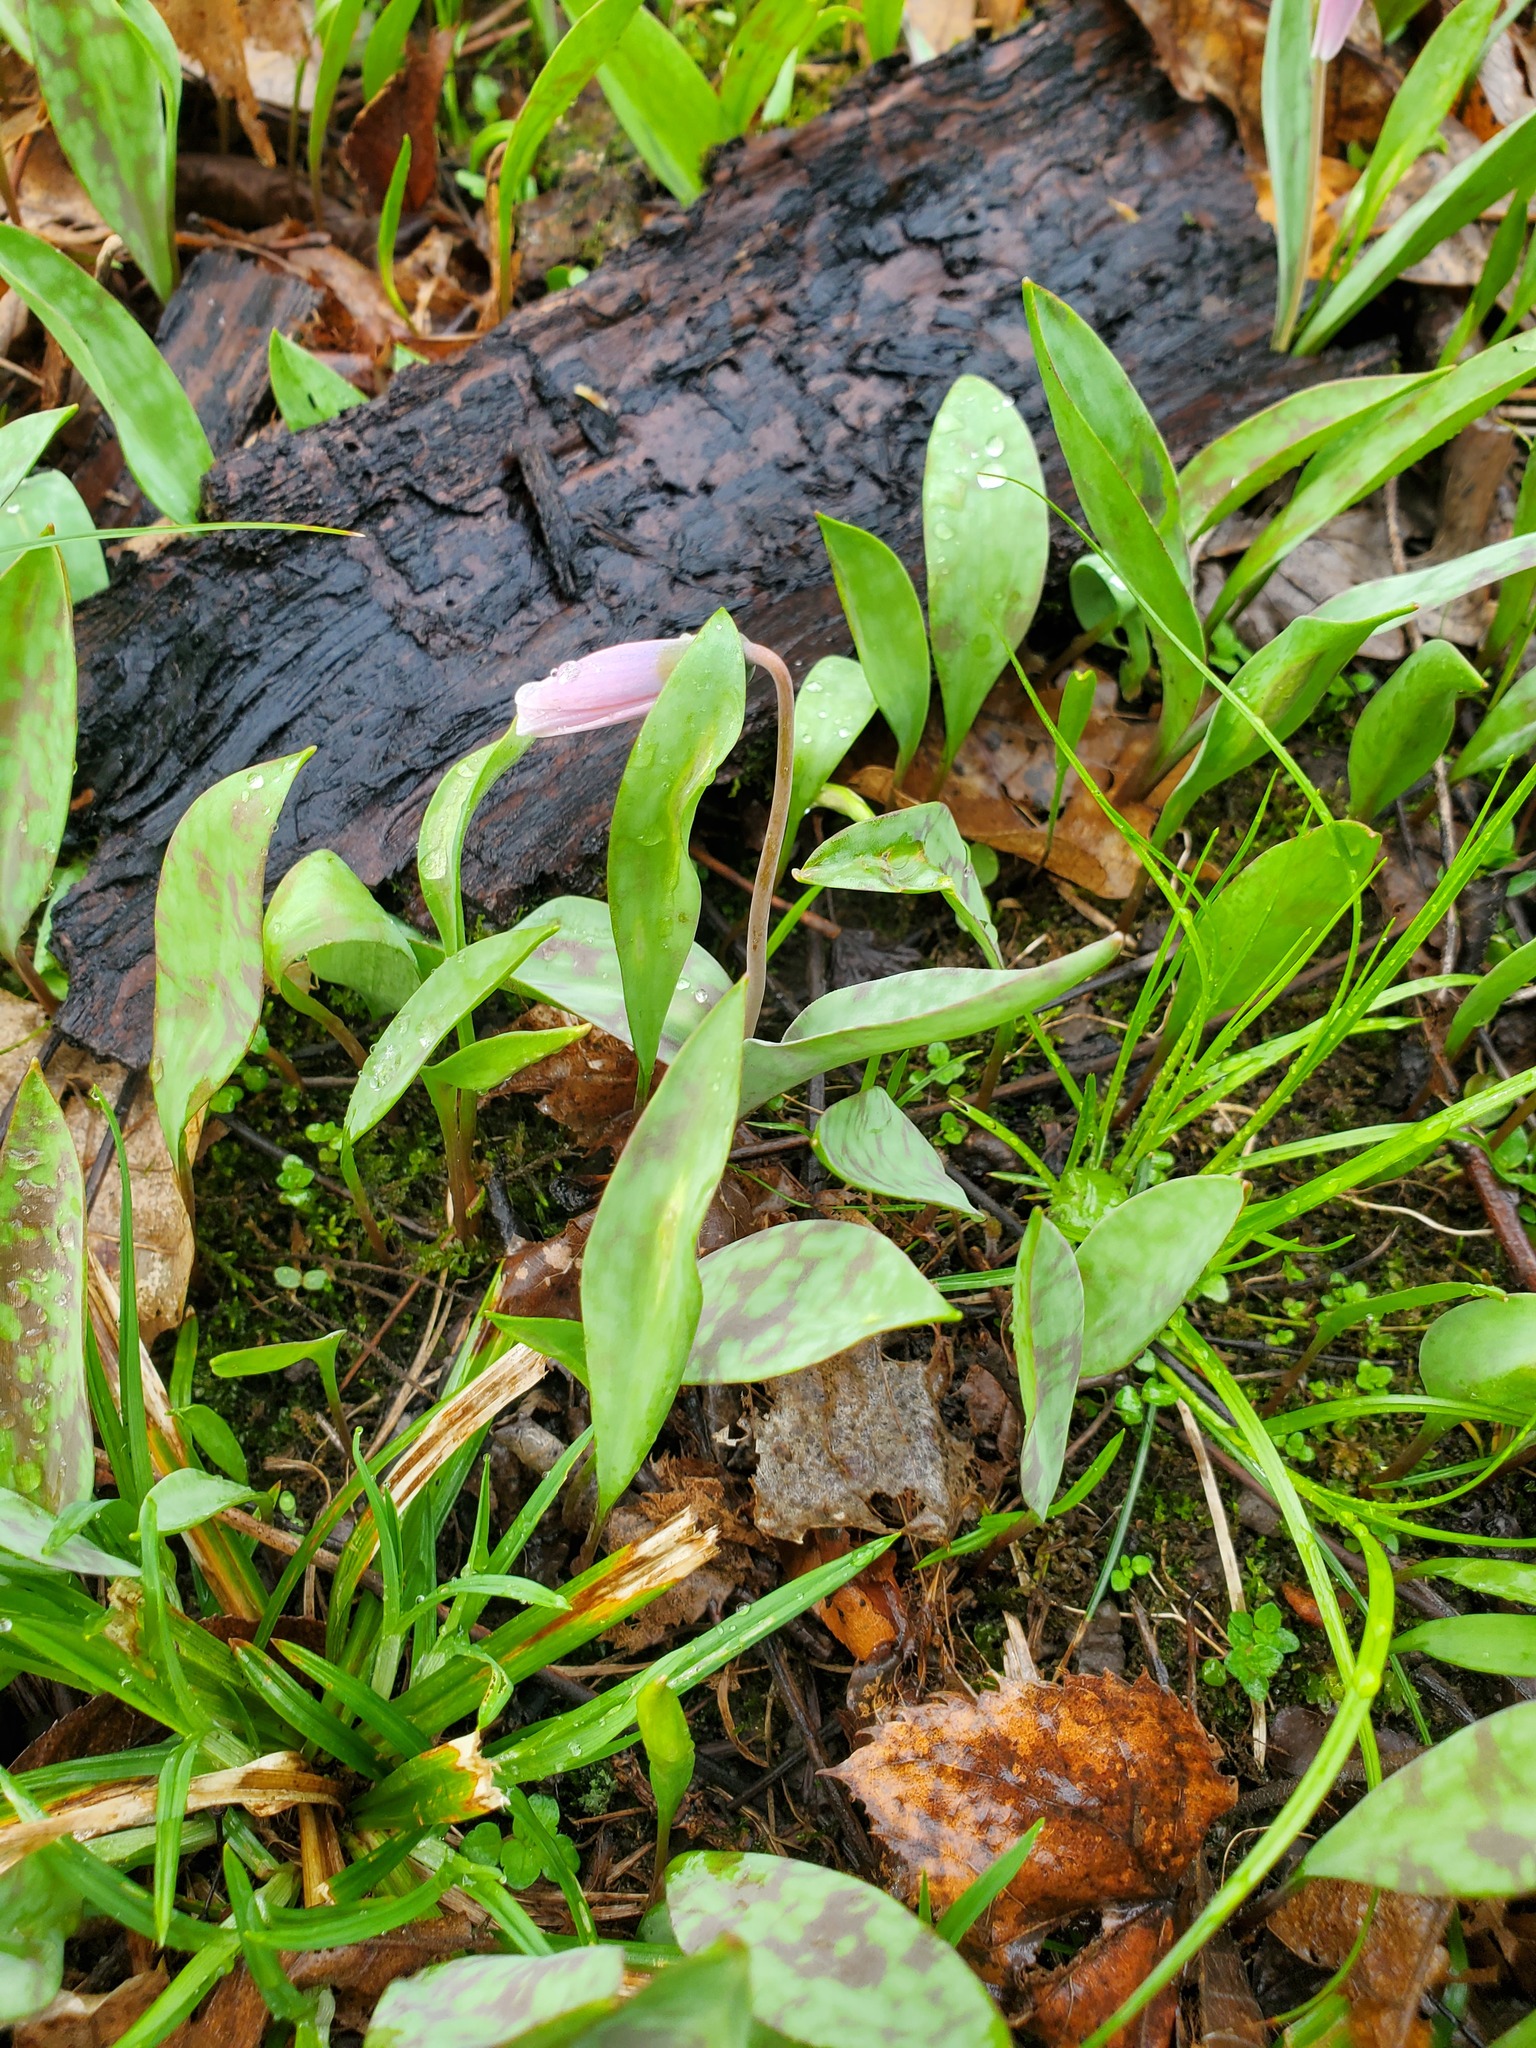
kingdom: Plantae
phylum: Tracheophyta
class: Liliopsida
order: Liliales
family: Liliaceae
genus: Erythronium
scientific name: Erythronium albidum
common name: White trout-lily
